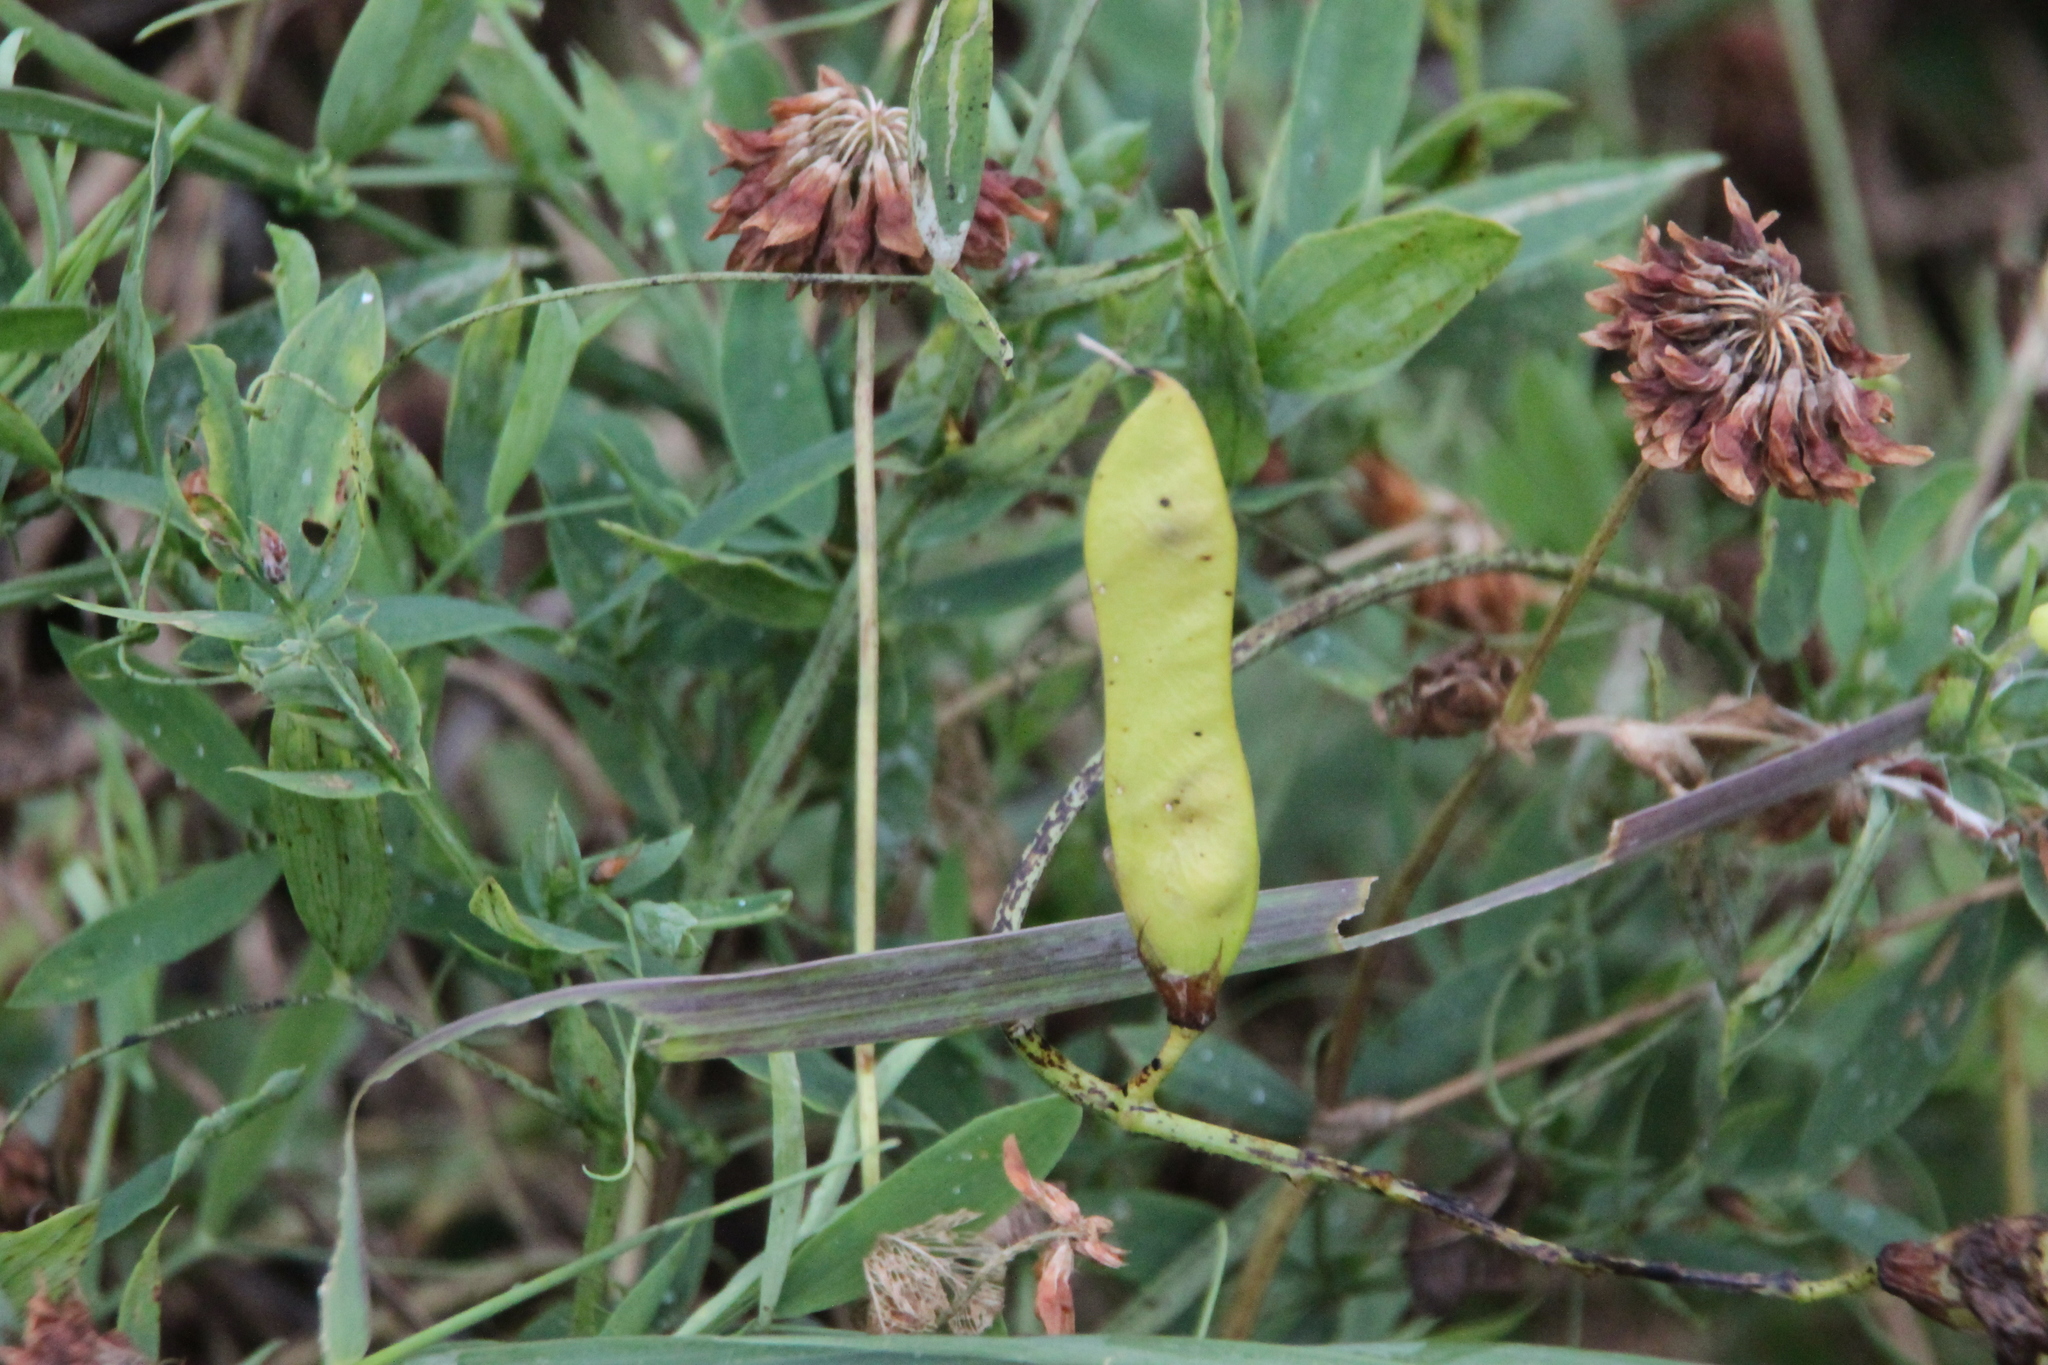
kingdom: Plantae
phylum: Tracheophyta
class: Magnoliopsida
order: Fabales
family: Fabaceae
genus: Lathyrus
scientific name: Lathyrus pratensis
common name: Meadow vetchling
